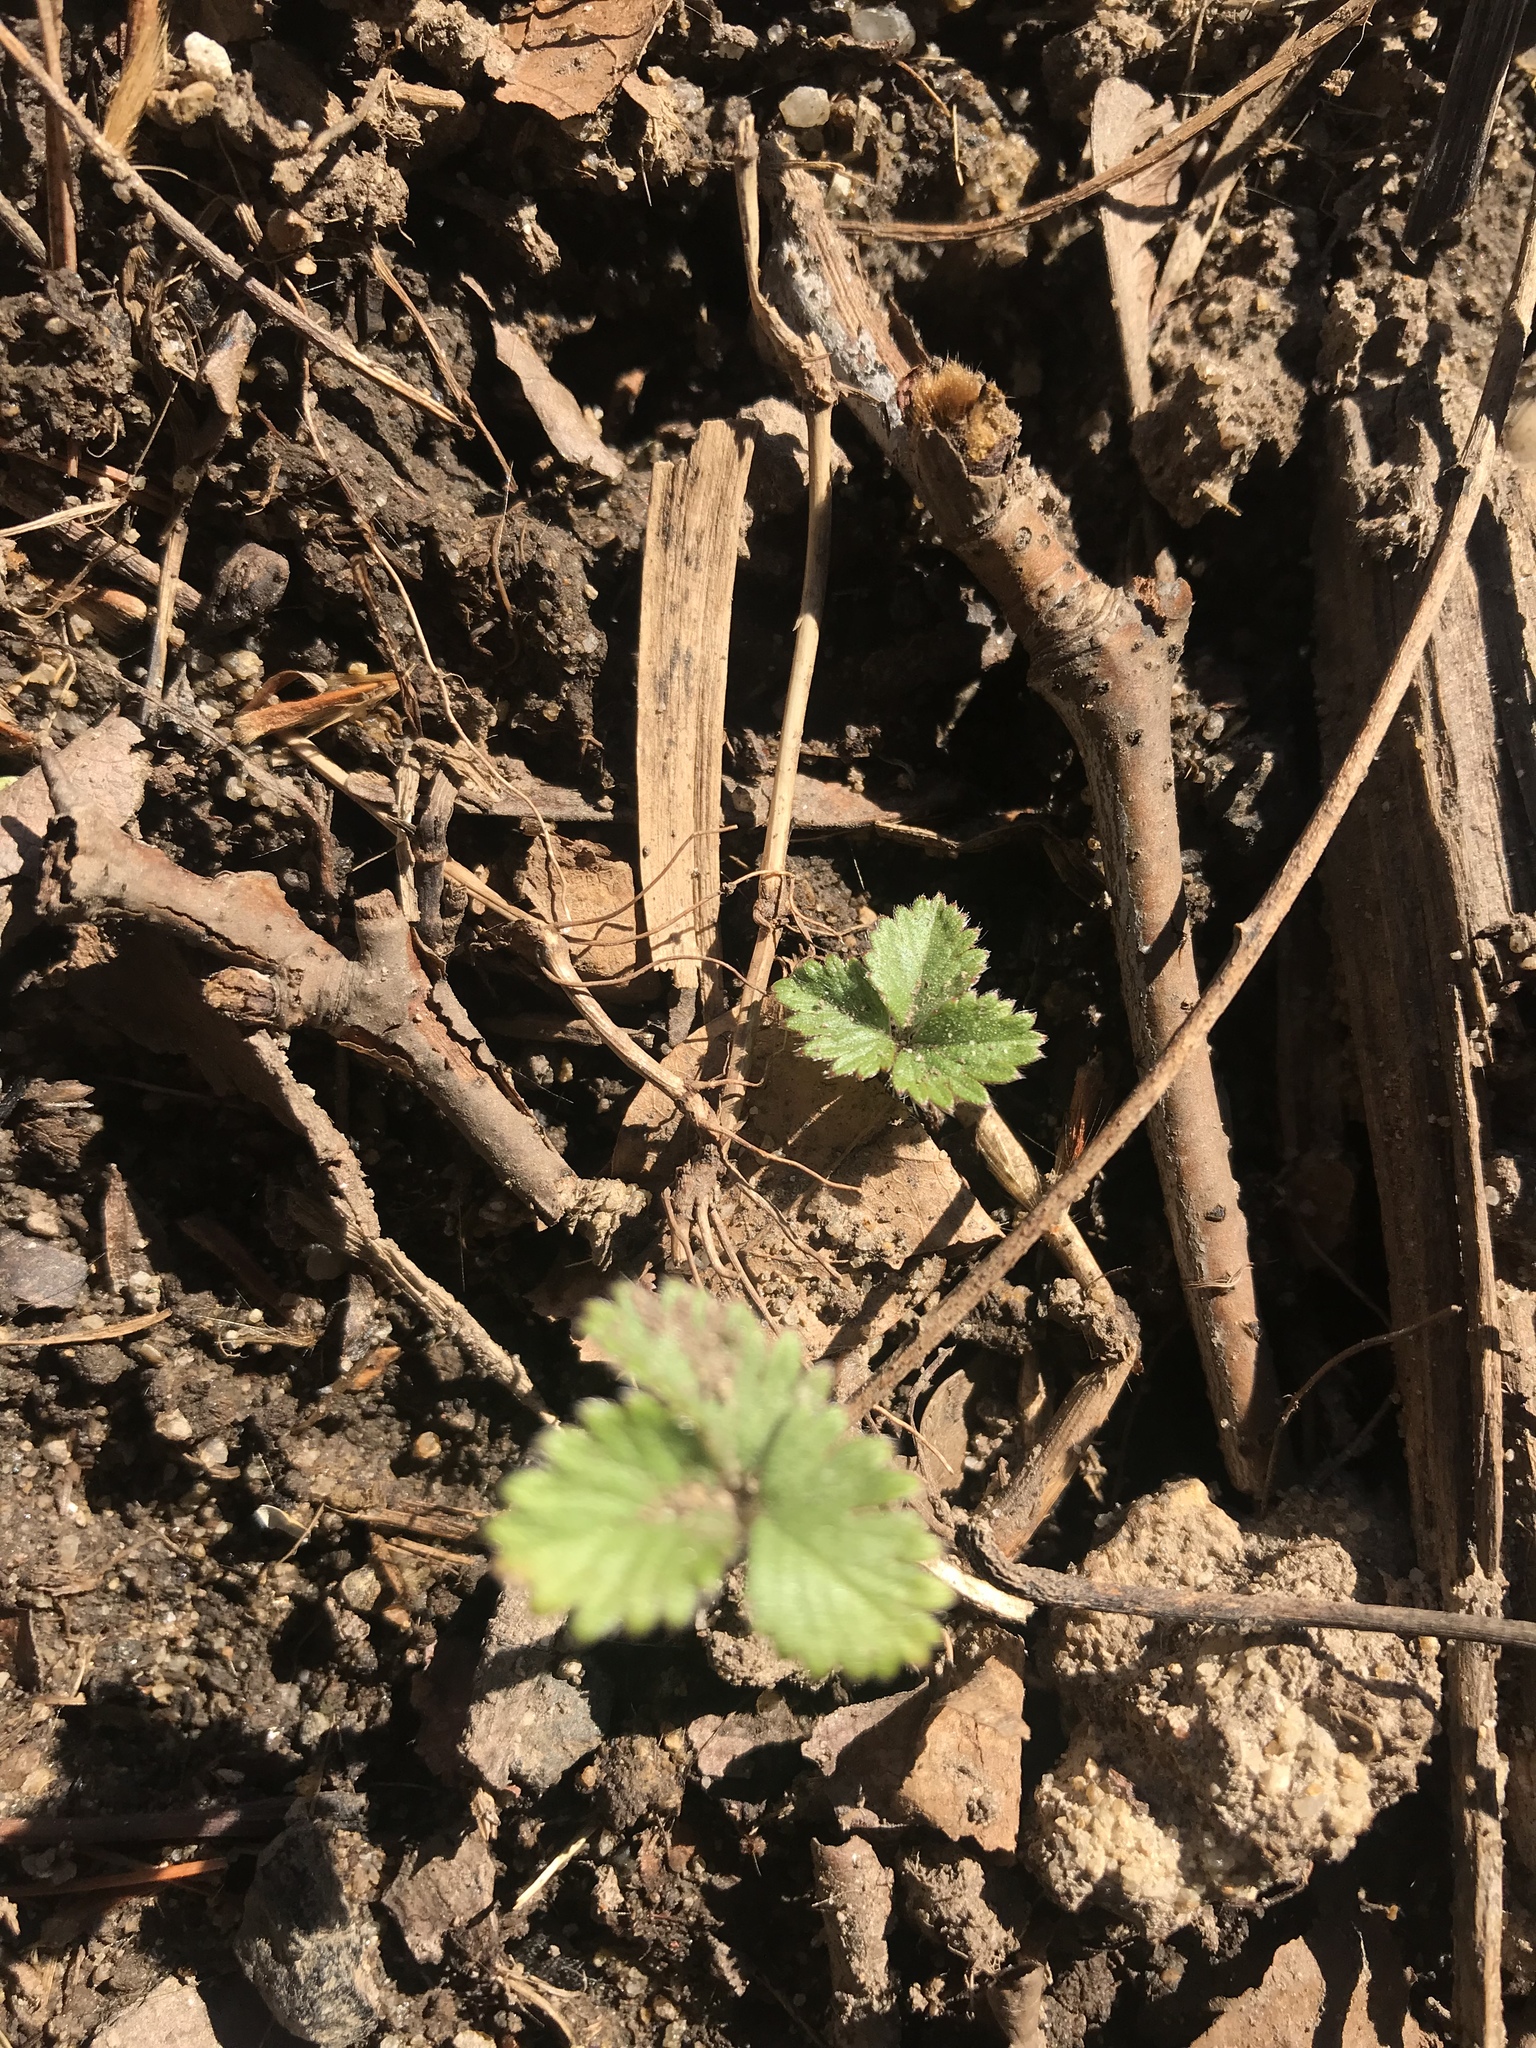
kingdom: Plantae
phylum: Tracheophyta
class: Magnoliopsida
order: Rosales
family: Rosaceae
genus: Potentilla
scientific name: Potentilla indica
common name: Yellow-flowered strawberry
